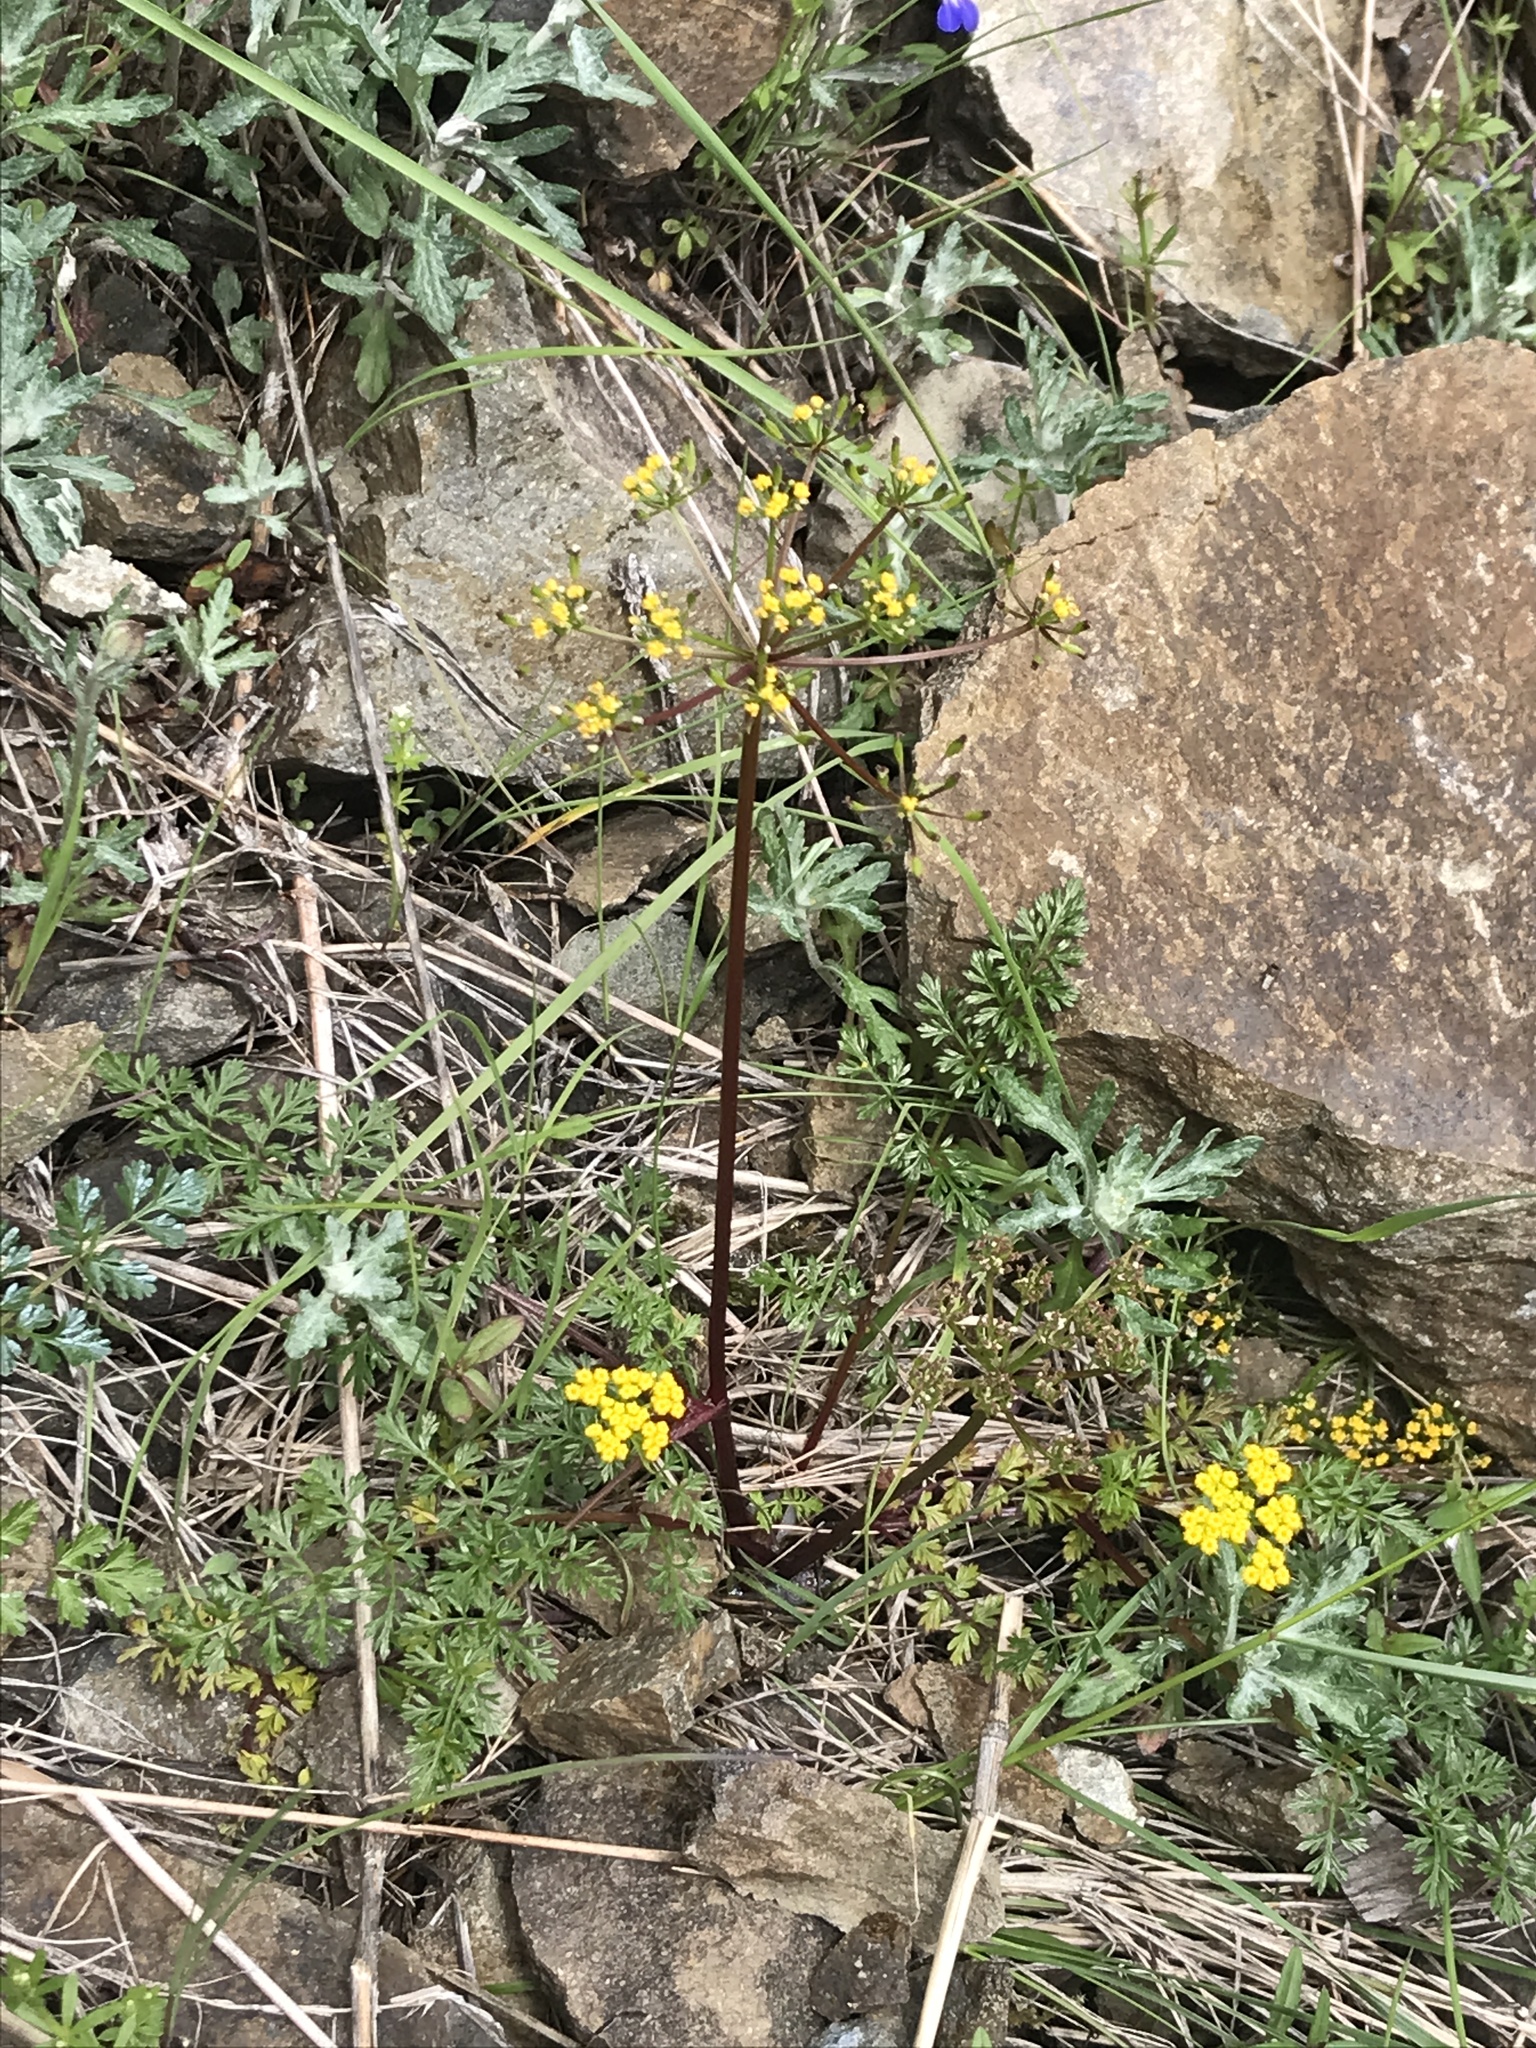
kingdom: Plantae
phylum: Tracheophyta
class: Magnoliopsida
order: Apiales
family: Apiaceae
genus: Lomatium
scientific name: Lomatium hallii
